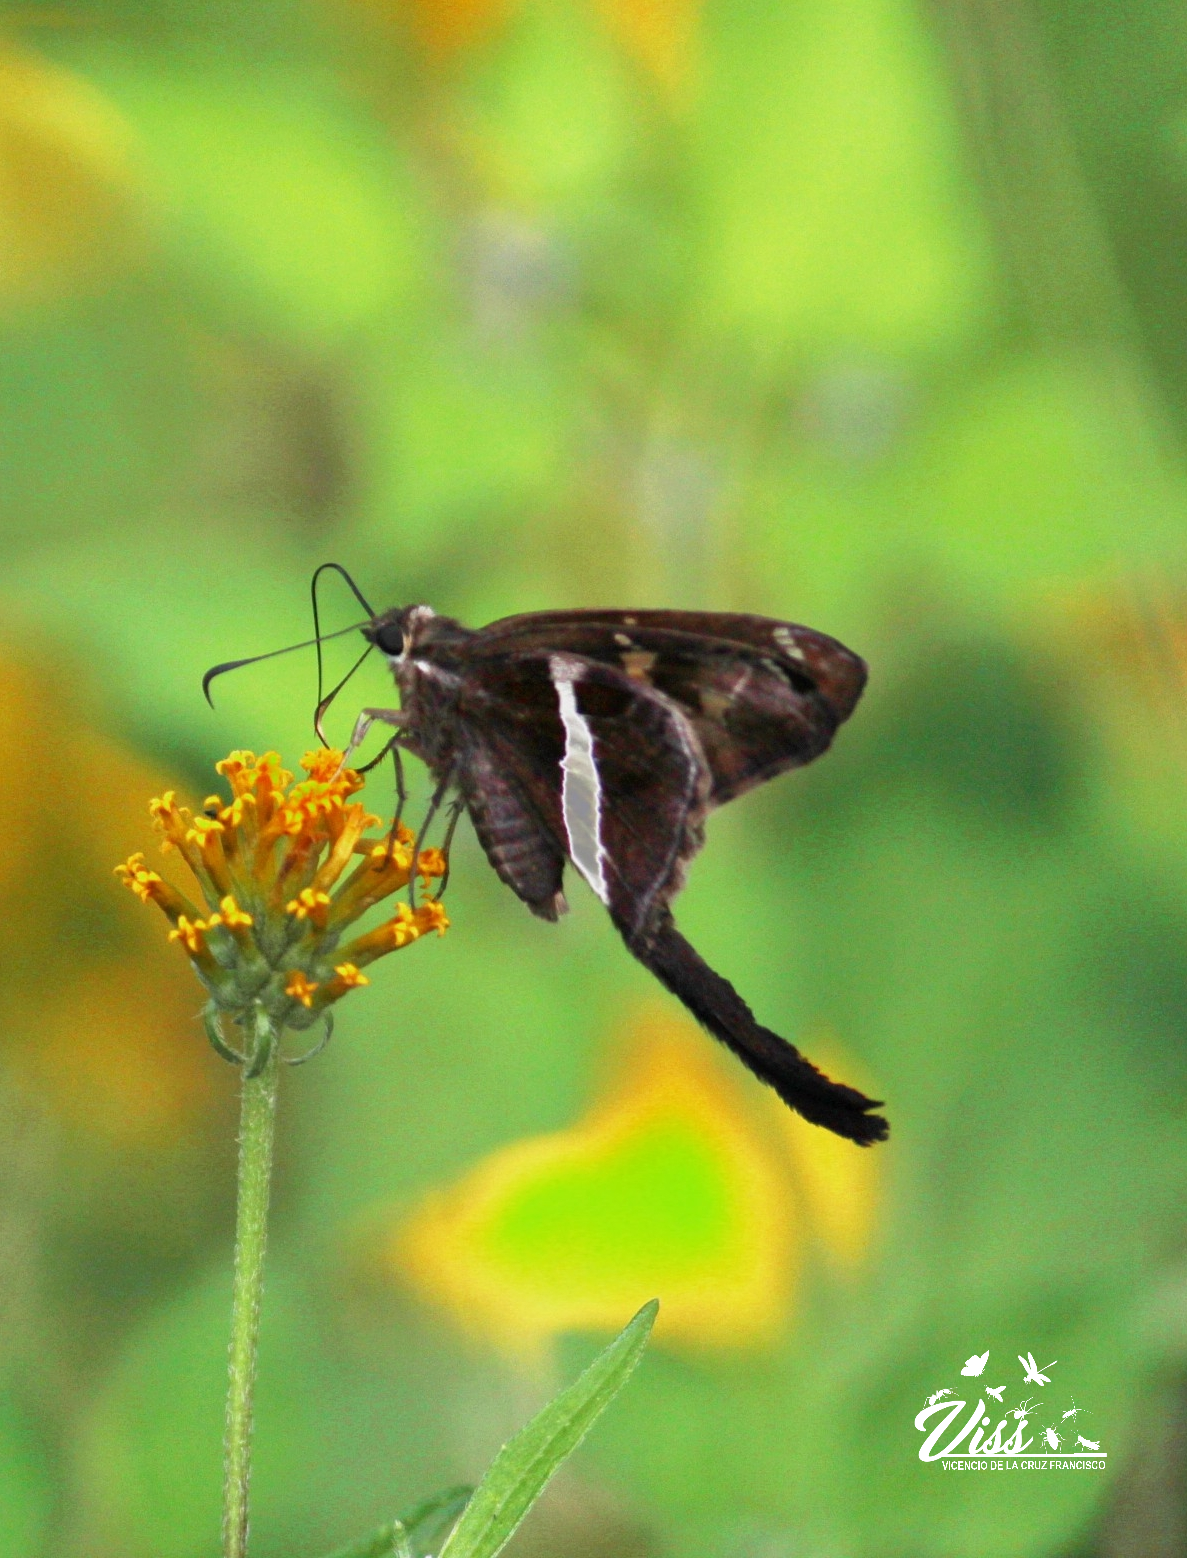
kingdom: Animalia
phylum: Arthropoda
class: Insecta
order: Lepidoptera
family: Hesperiidae
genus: Chioides
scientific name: Chioides catillus
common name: Silverbanded skipper
